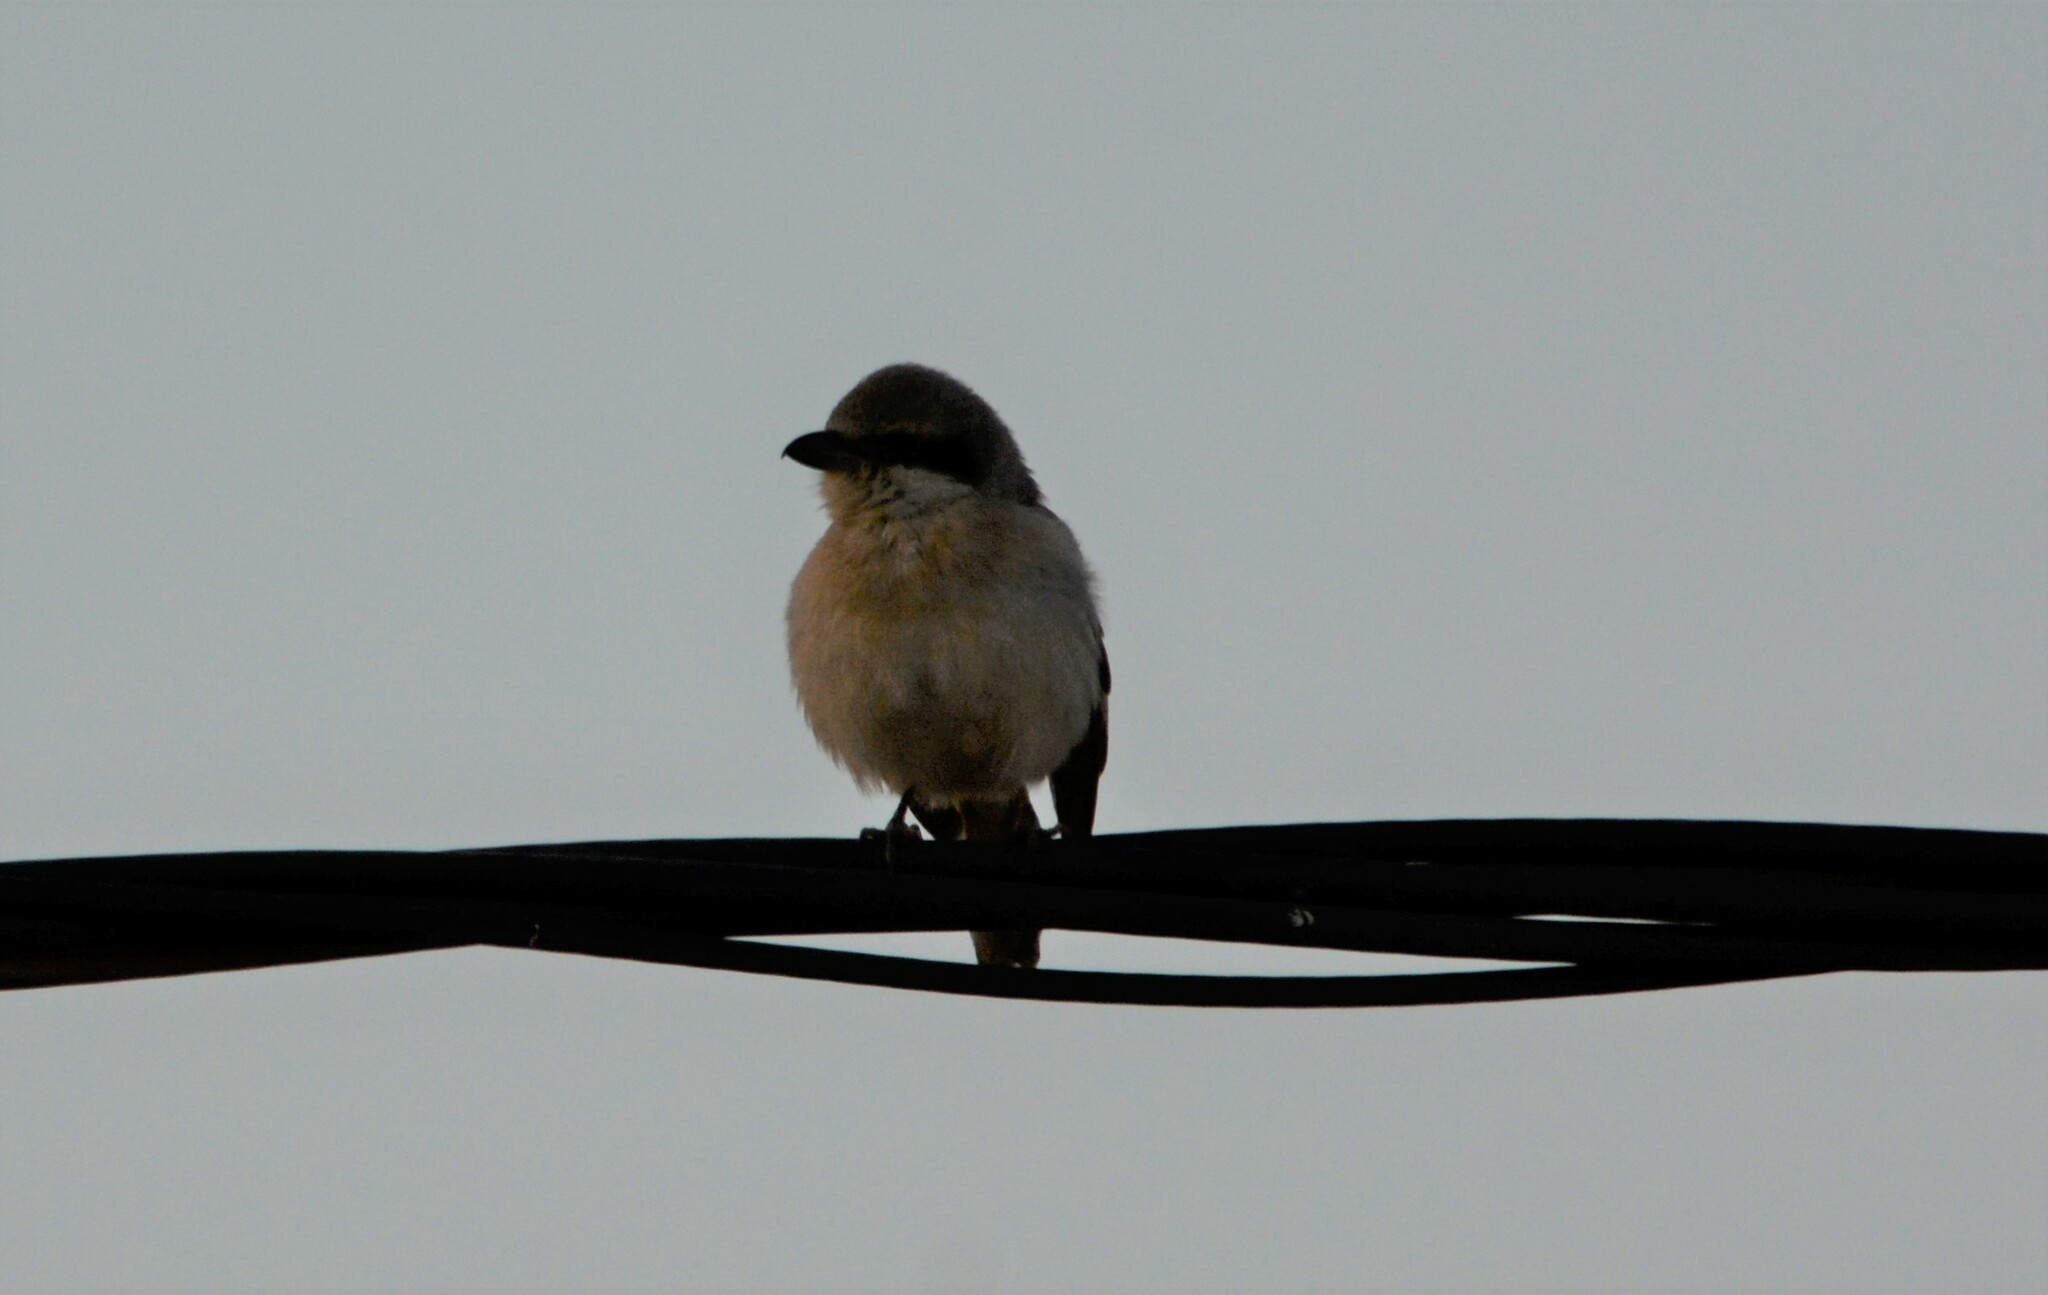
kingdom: Animalia
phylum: Chordata
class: Aves
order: Passeriformes
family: Laniidae
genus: Lanius
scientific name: Lanius excubitor
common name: Great grey shrike
